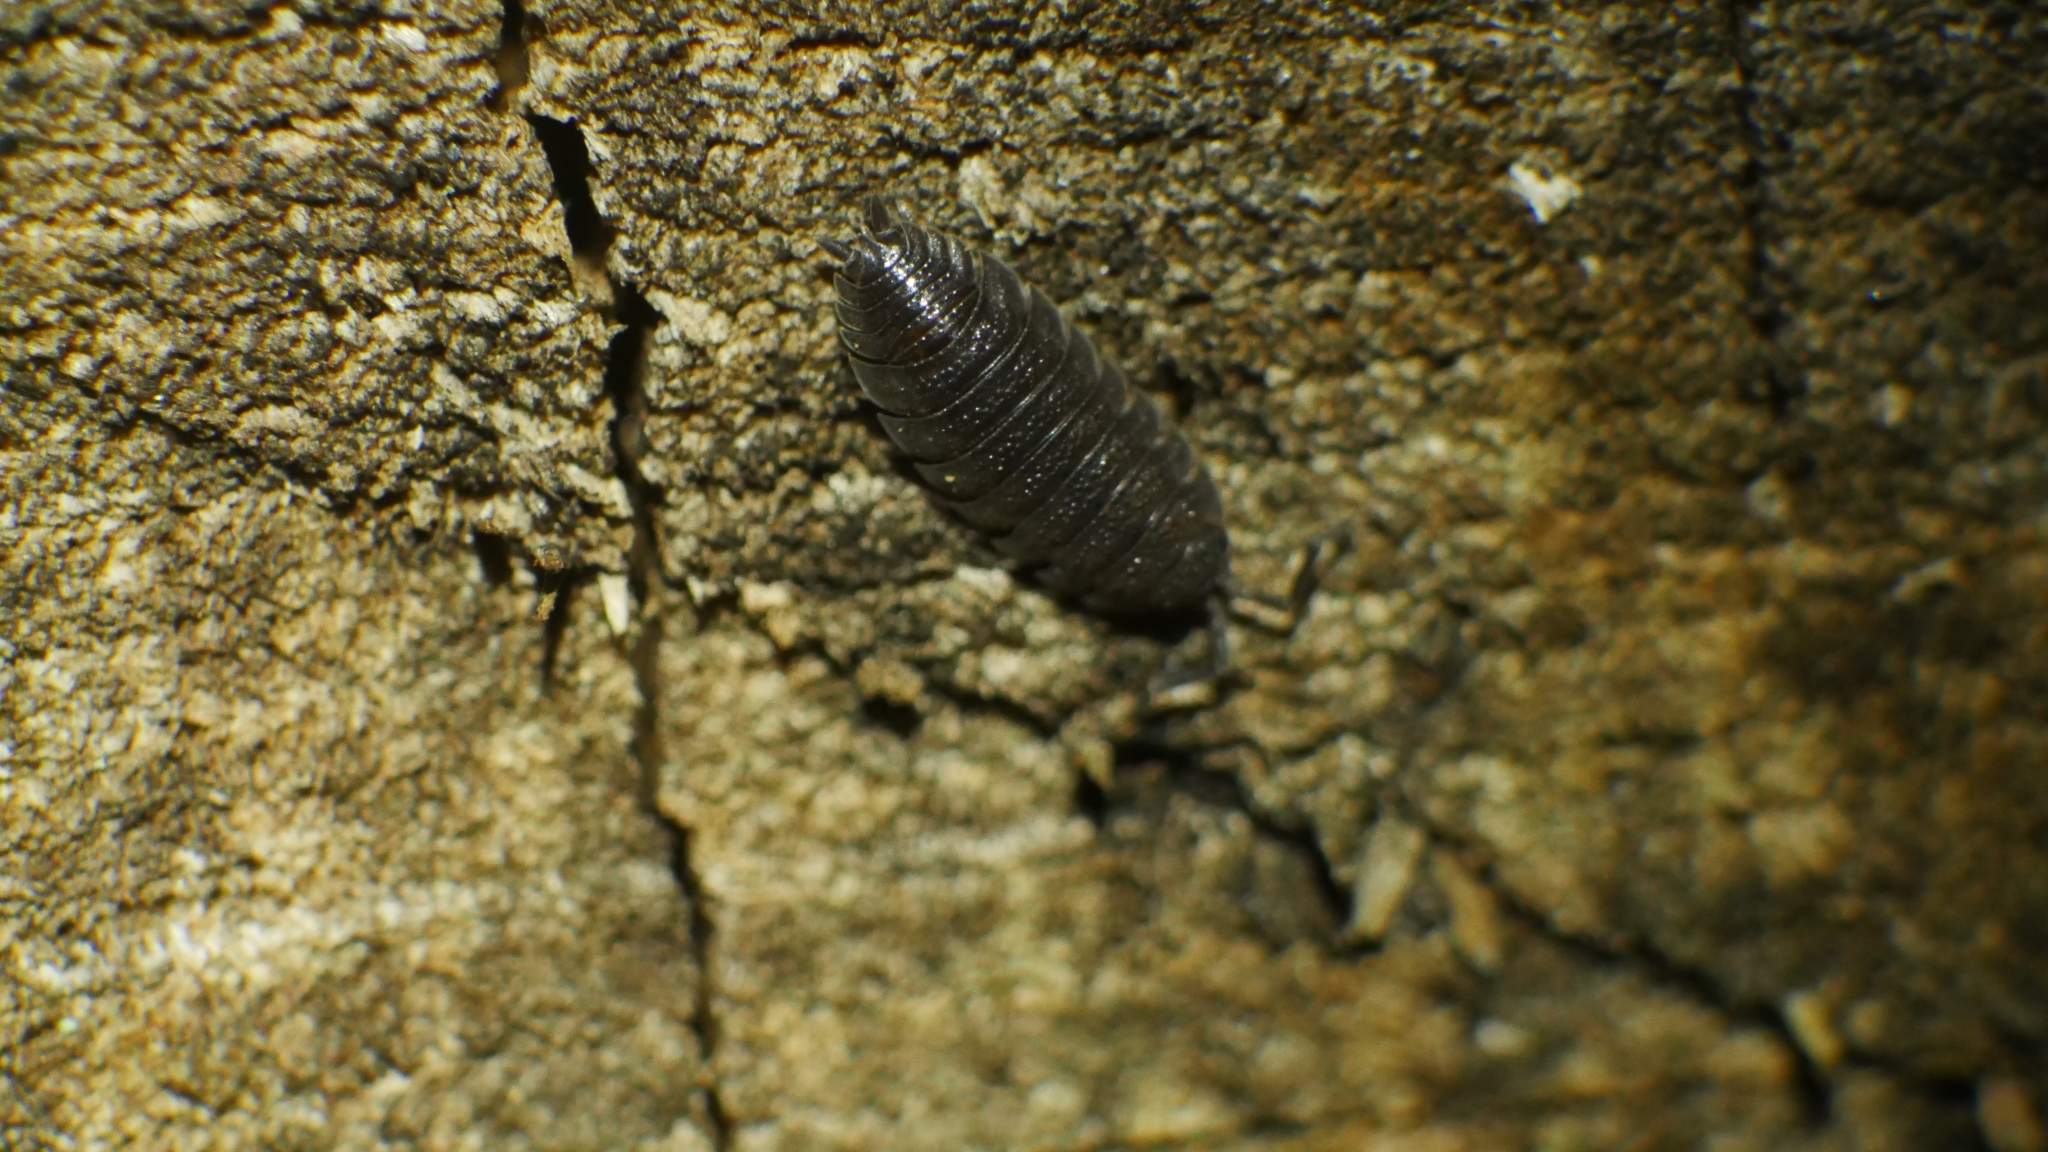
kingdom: Animalia
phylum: Arthropoda
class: Malacostraca
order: Isopoda
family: Porcellionidae
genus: Porcellio
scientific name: Porcellio scaber
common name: Common rough woodlouse
